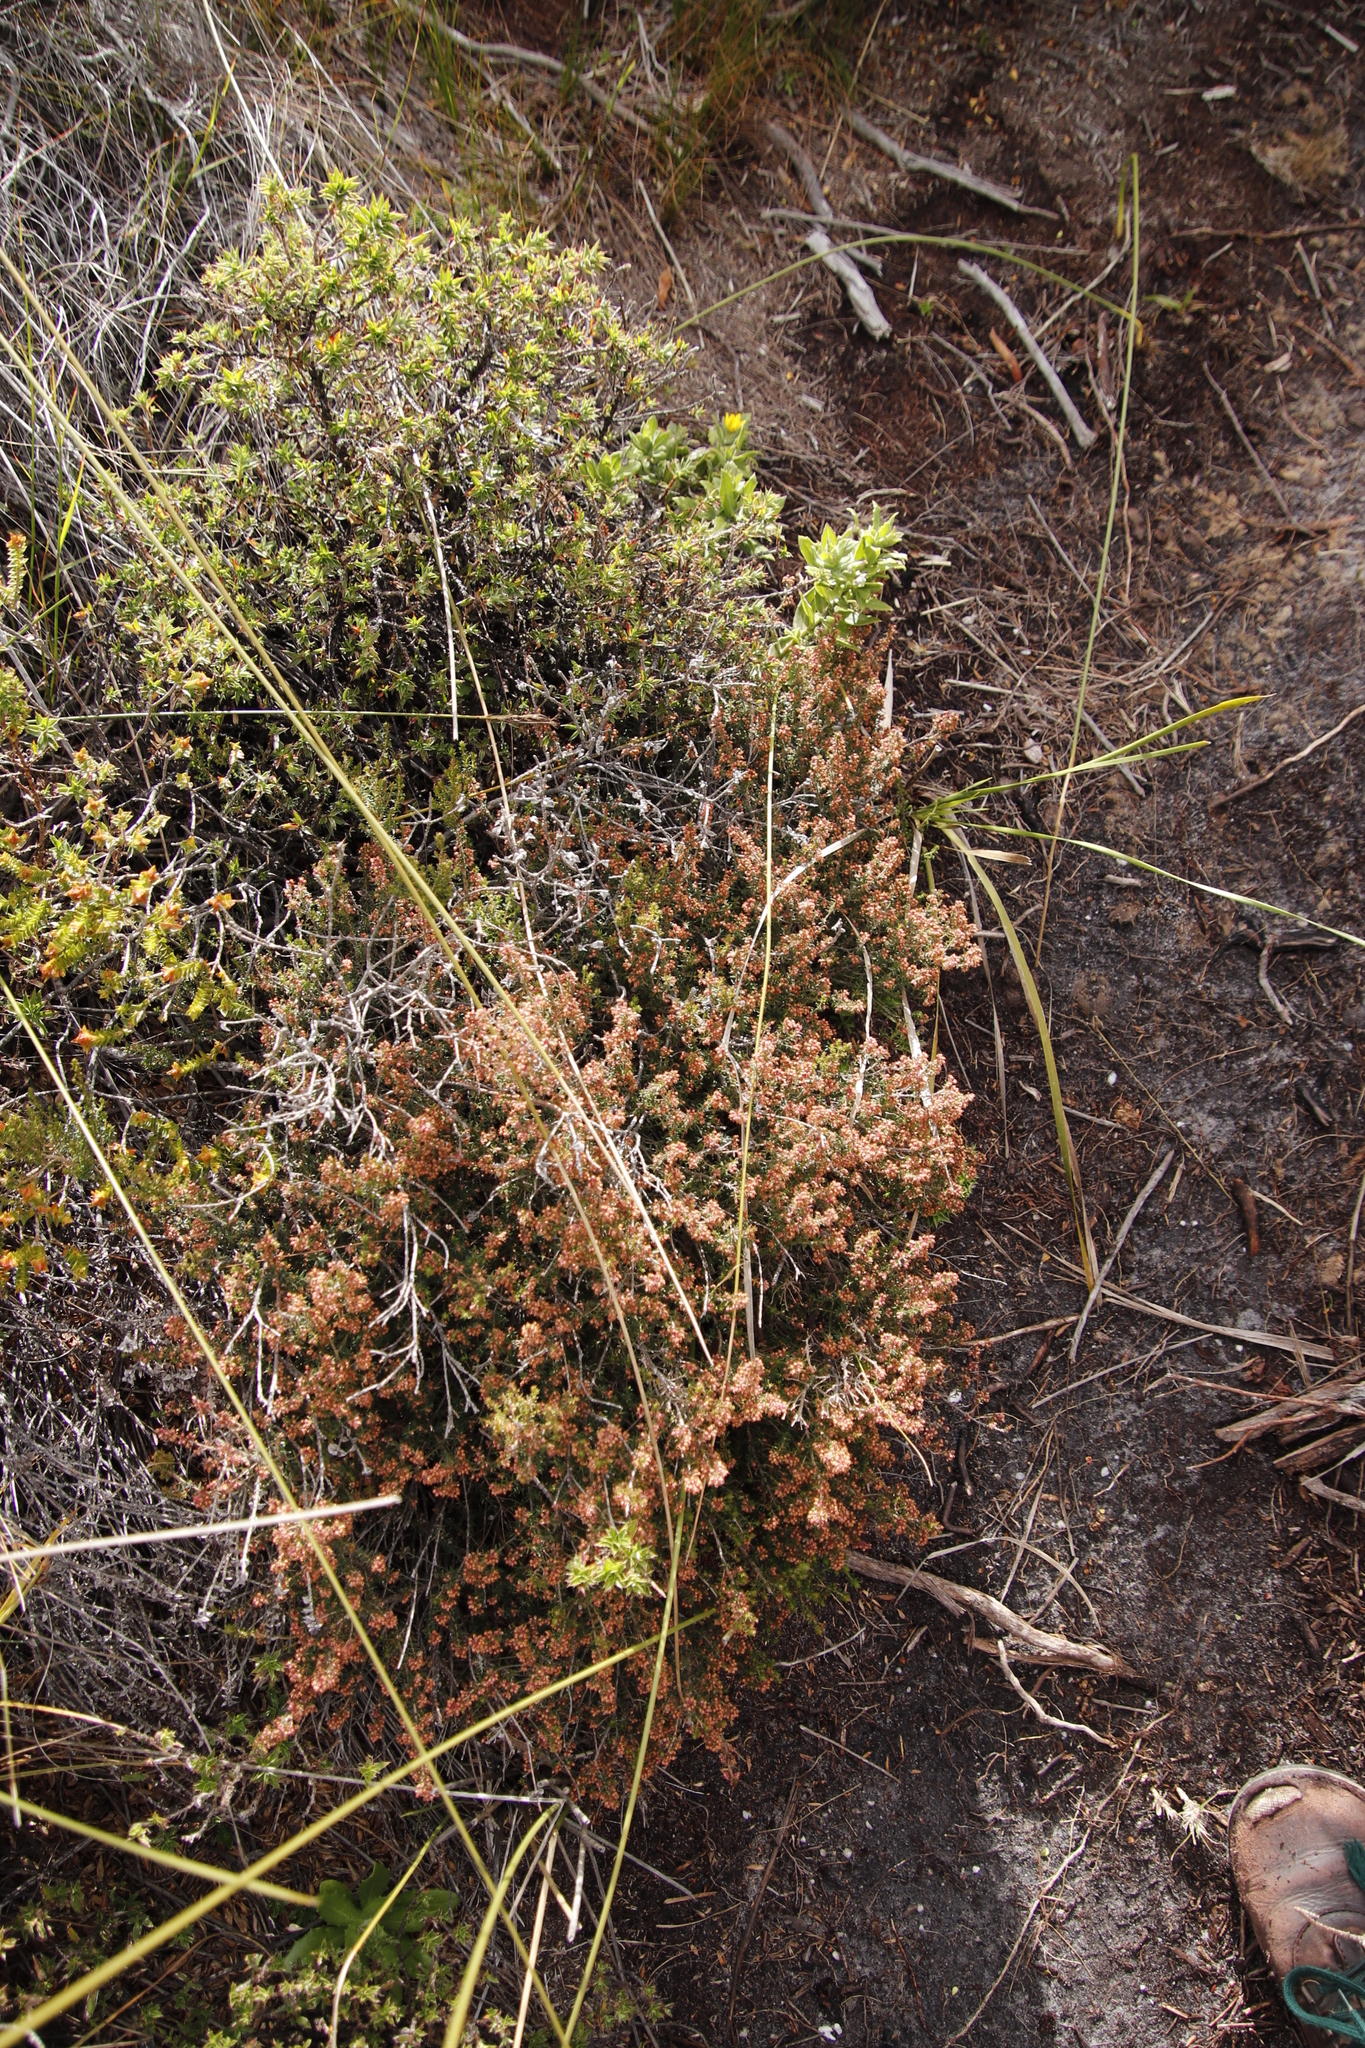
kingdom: Plantae
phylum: Tracheophyta
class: Magnoliopsida
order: Ericales
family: Ericaceae
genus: Erica
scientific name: Erica hispidula
